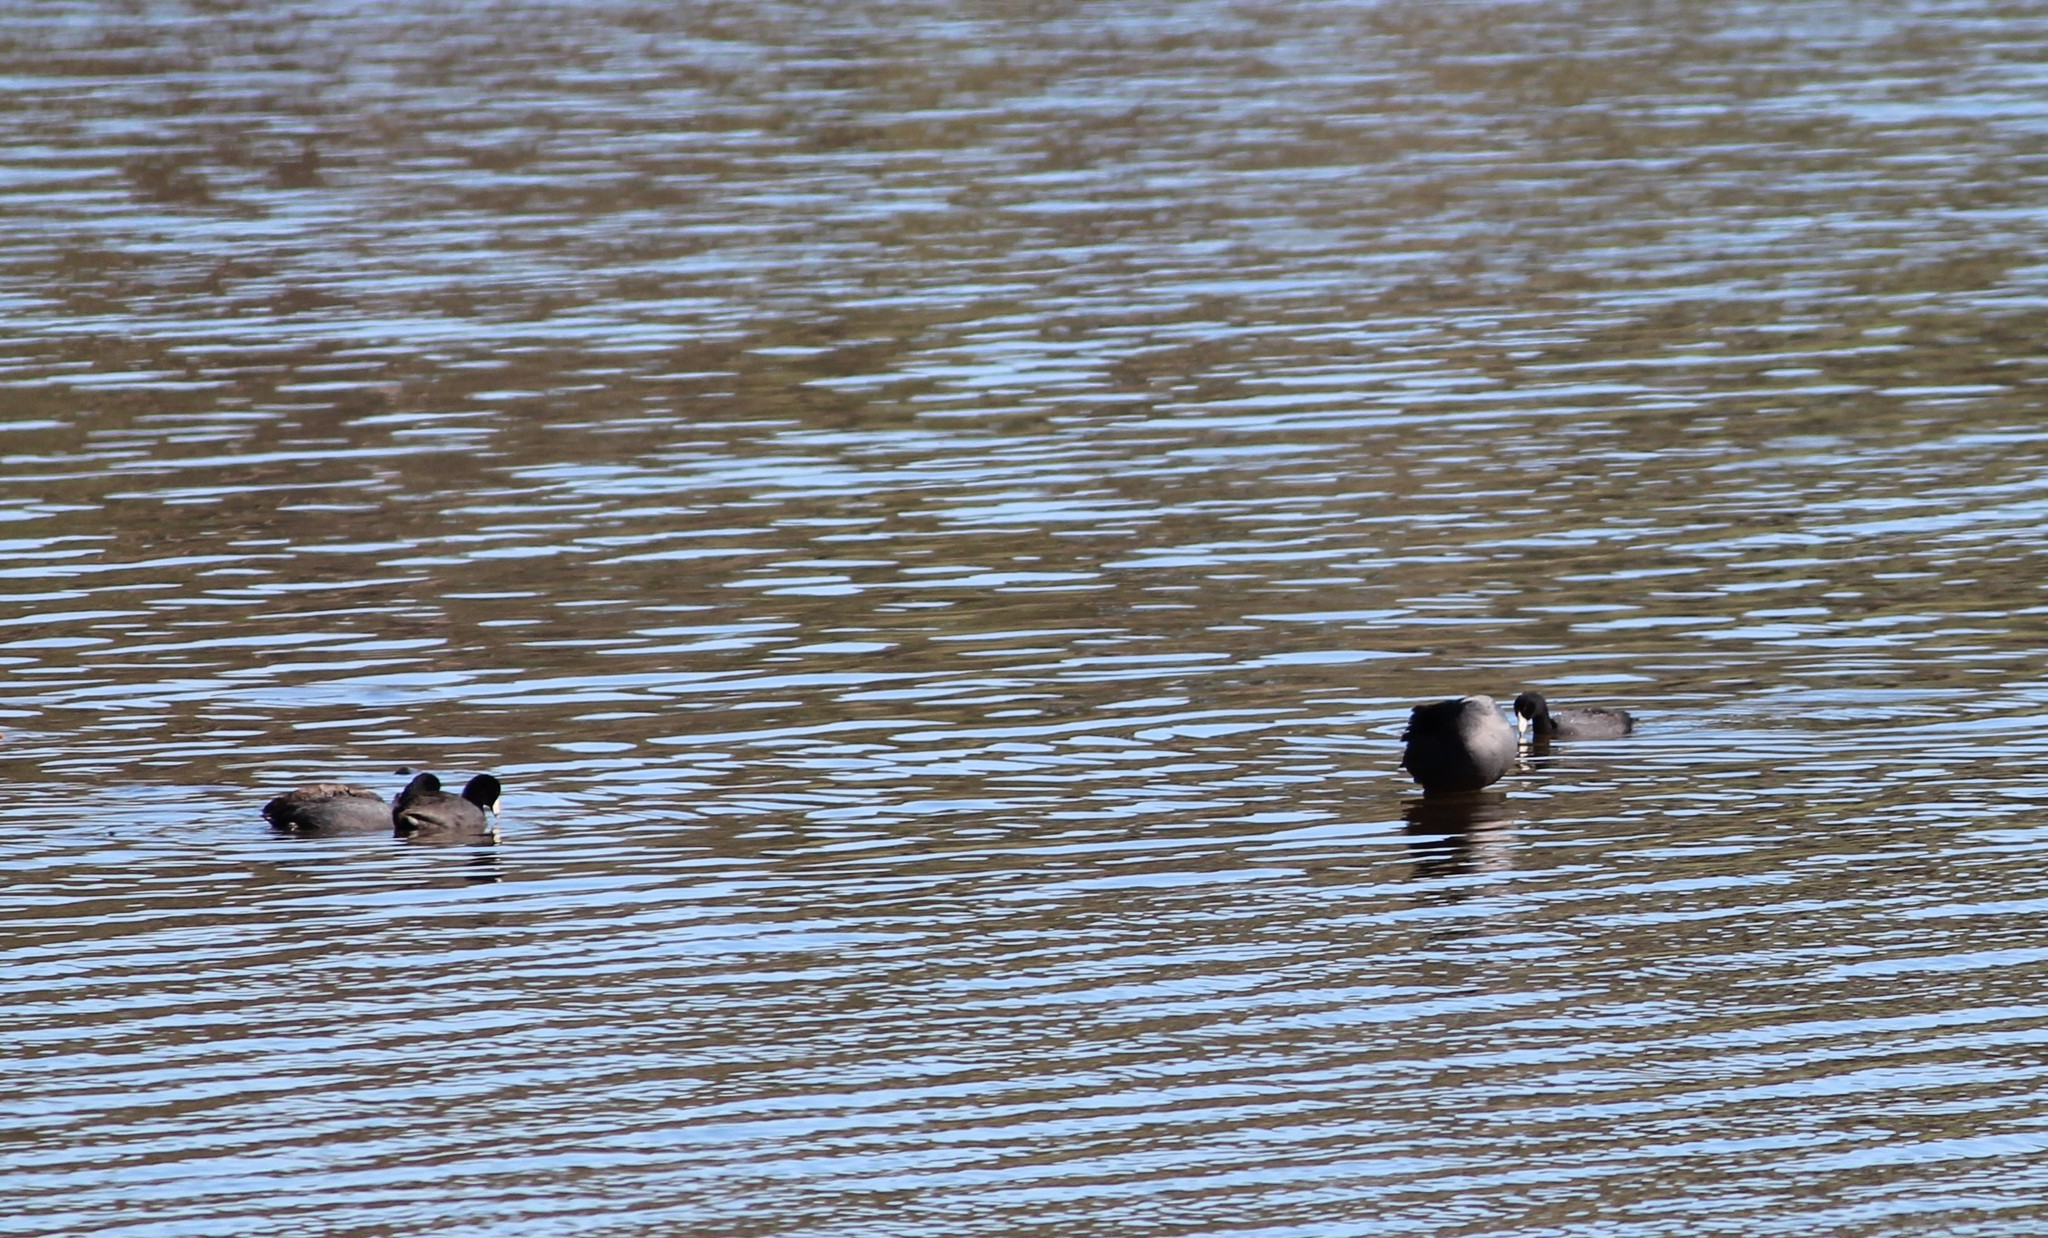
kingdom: Animalia
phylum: Chordata
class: Aves
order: Gruiformes
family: Rallidae
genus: Fulica
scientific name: Fulica americana
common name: American coot
